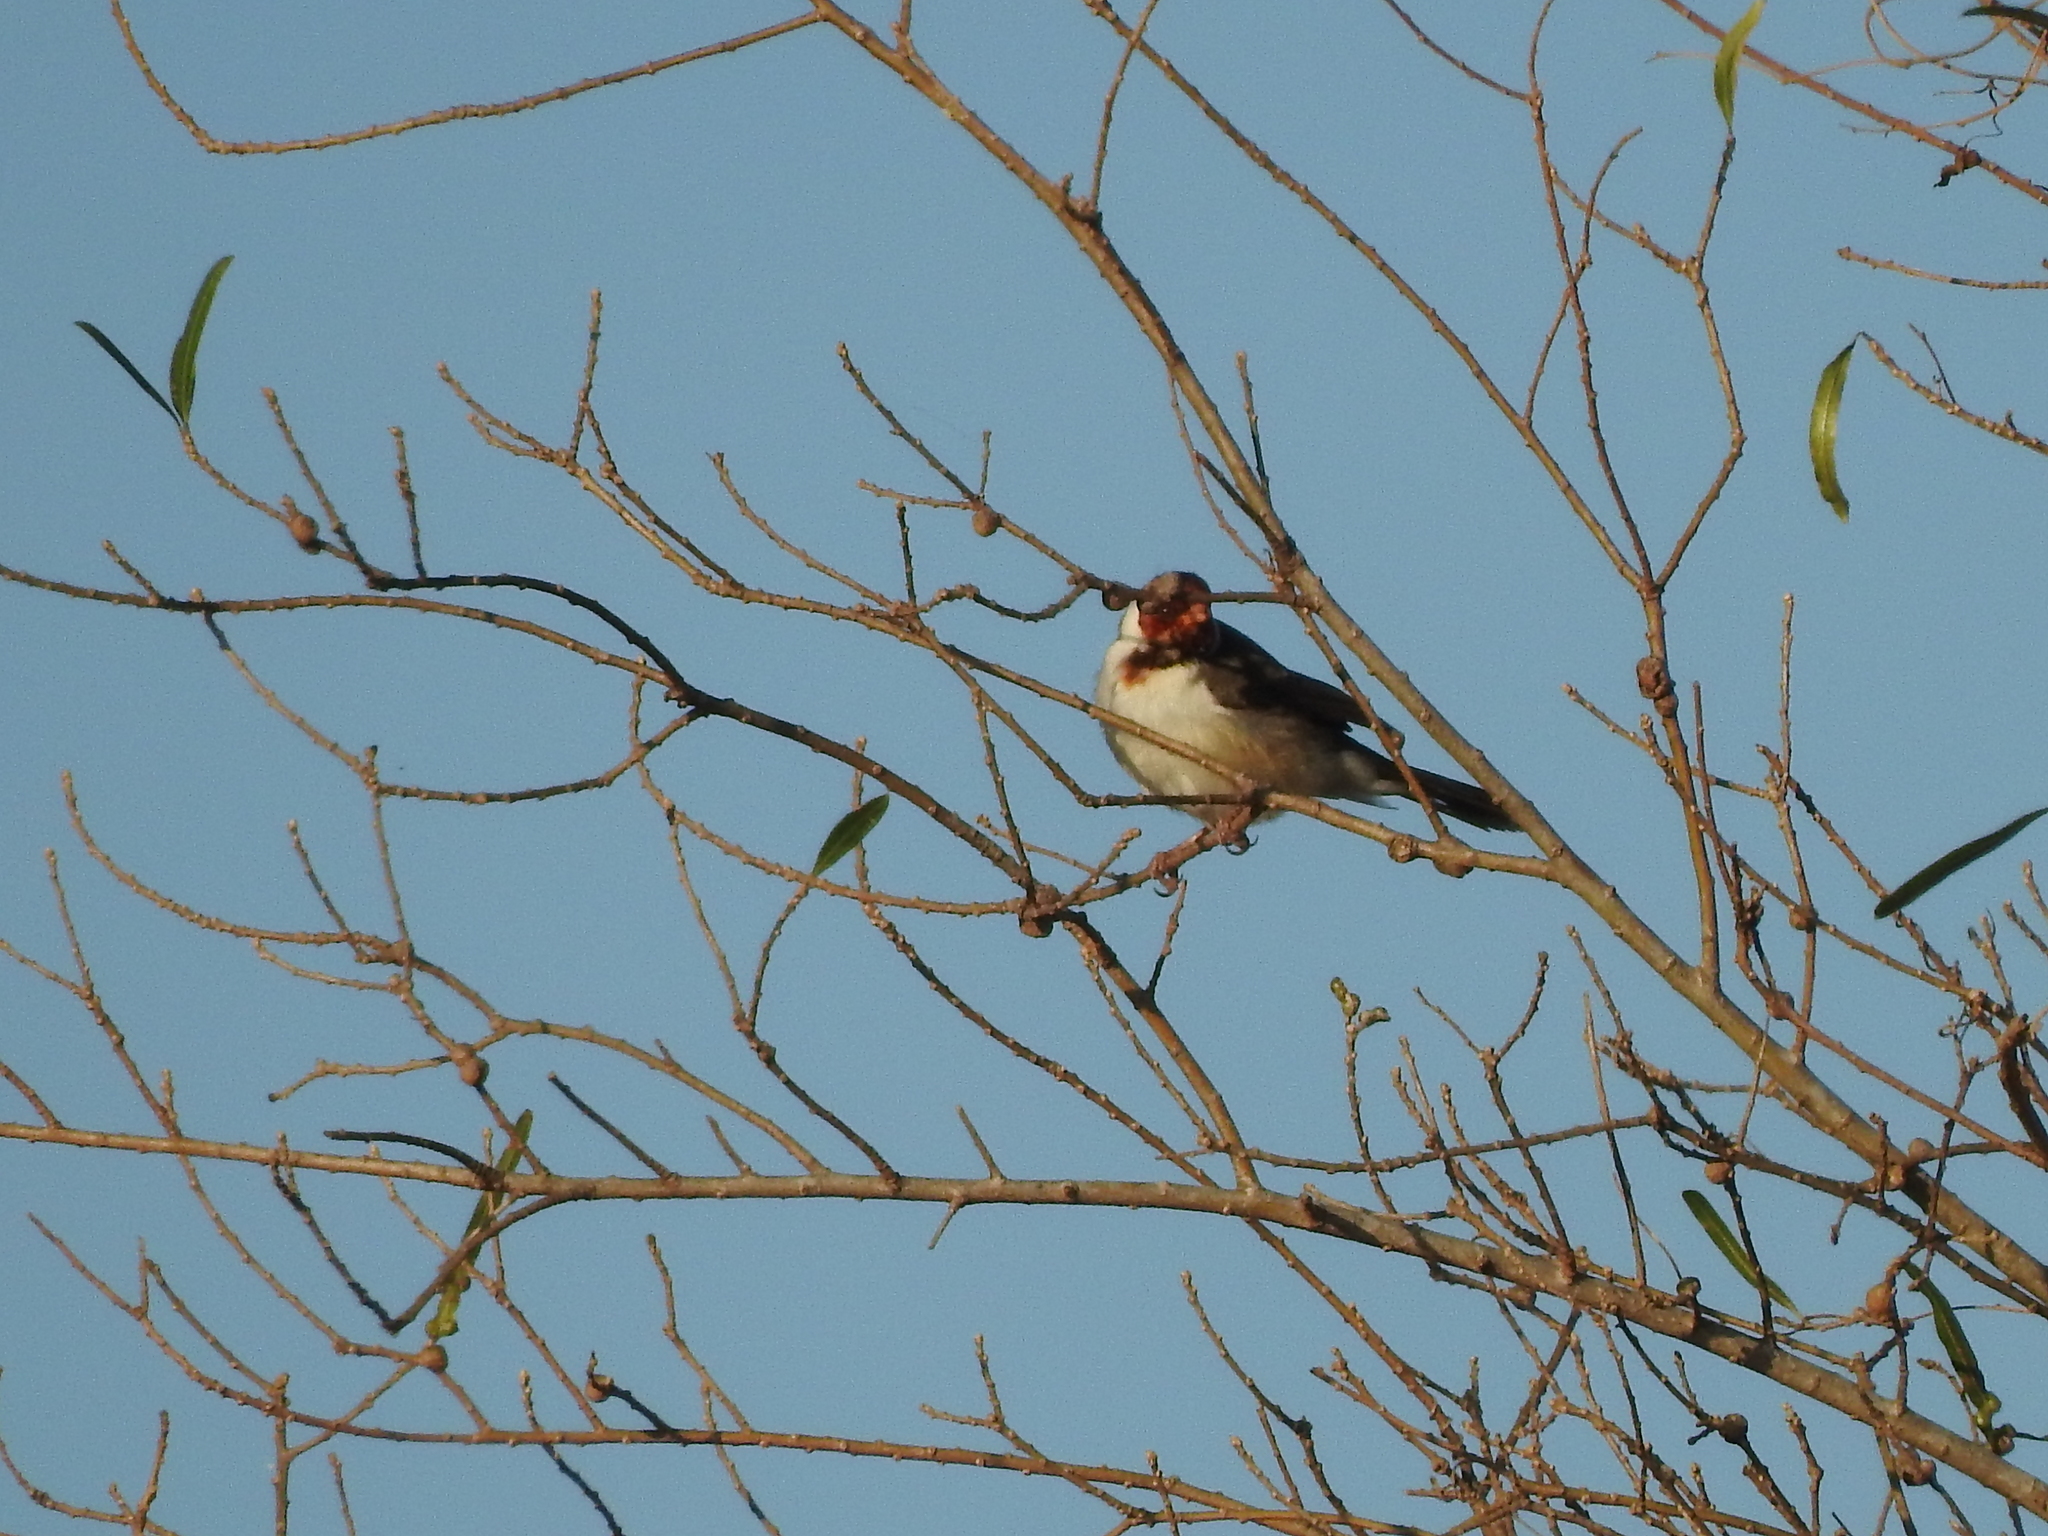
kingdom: Animalia
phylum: Chordata
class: Aves
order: Passeriformes
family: Thraupidae
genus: Paroaria
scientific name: Paroaria capitata
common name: Yellow-billed cardinal
